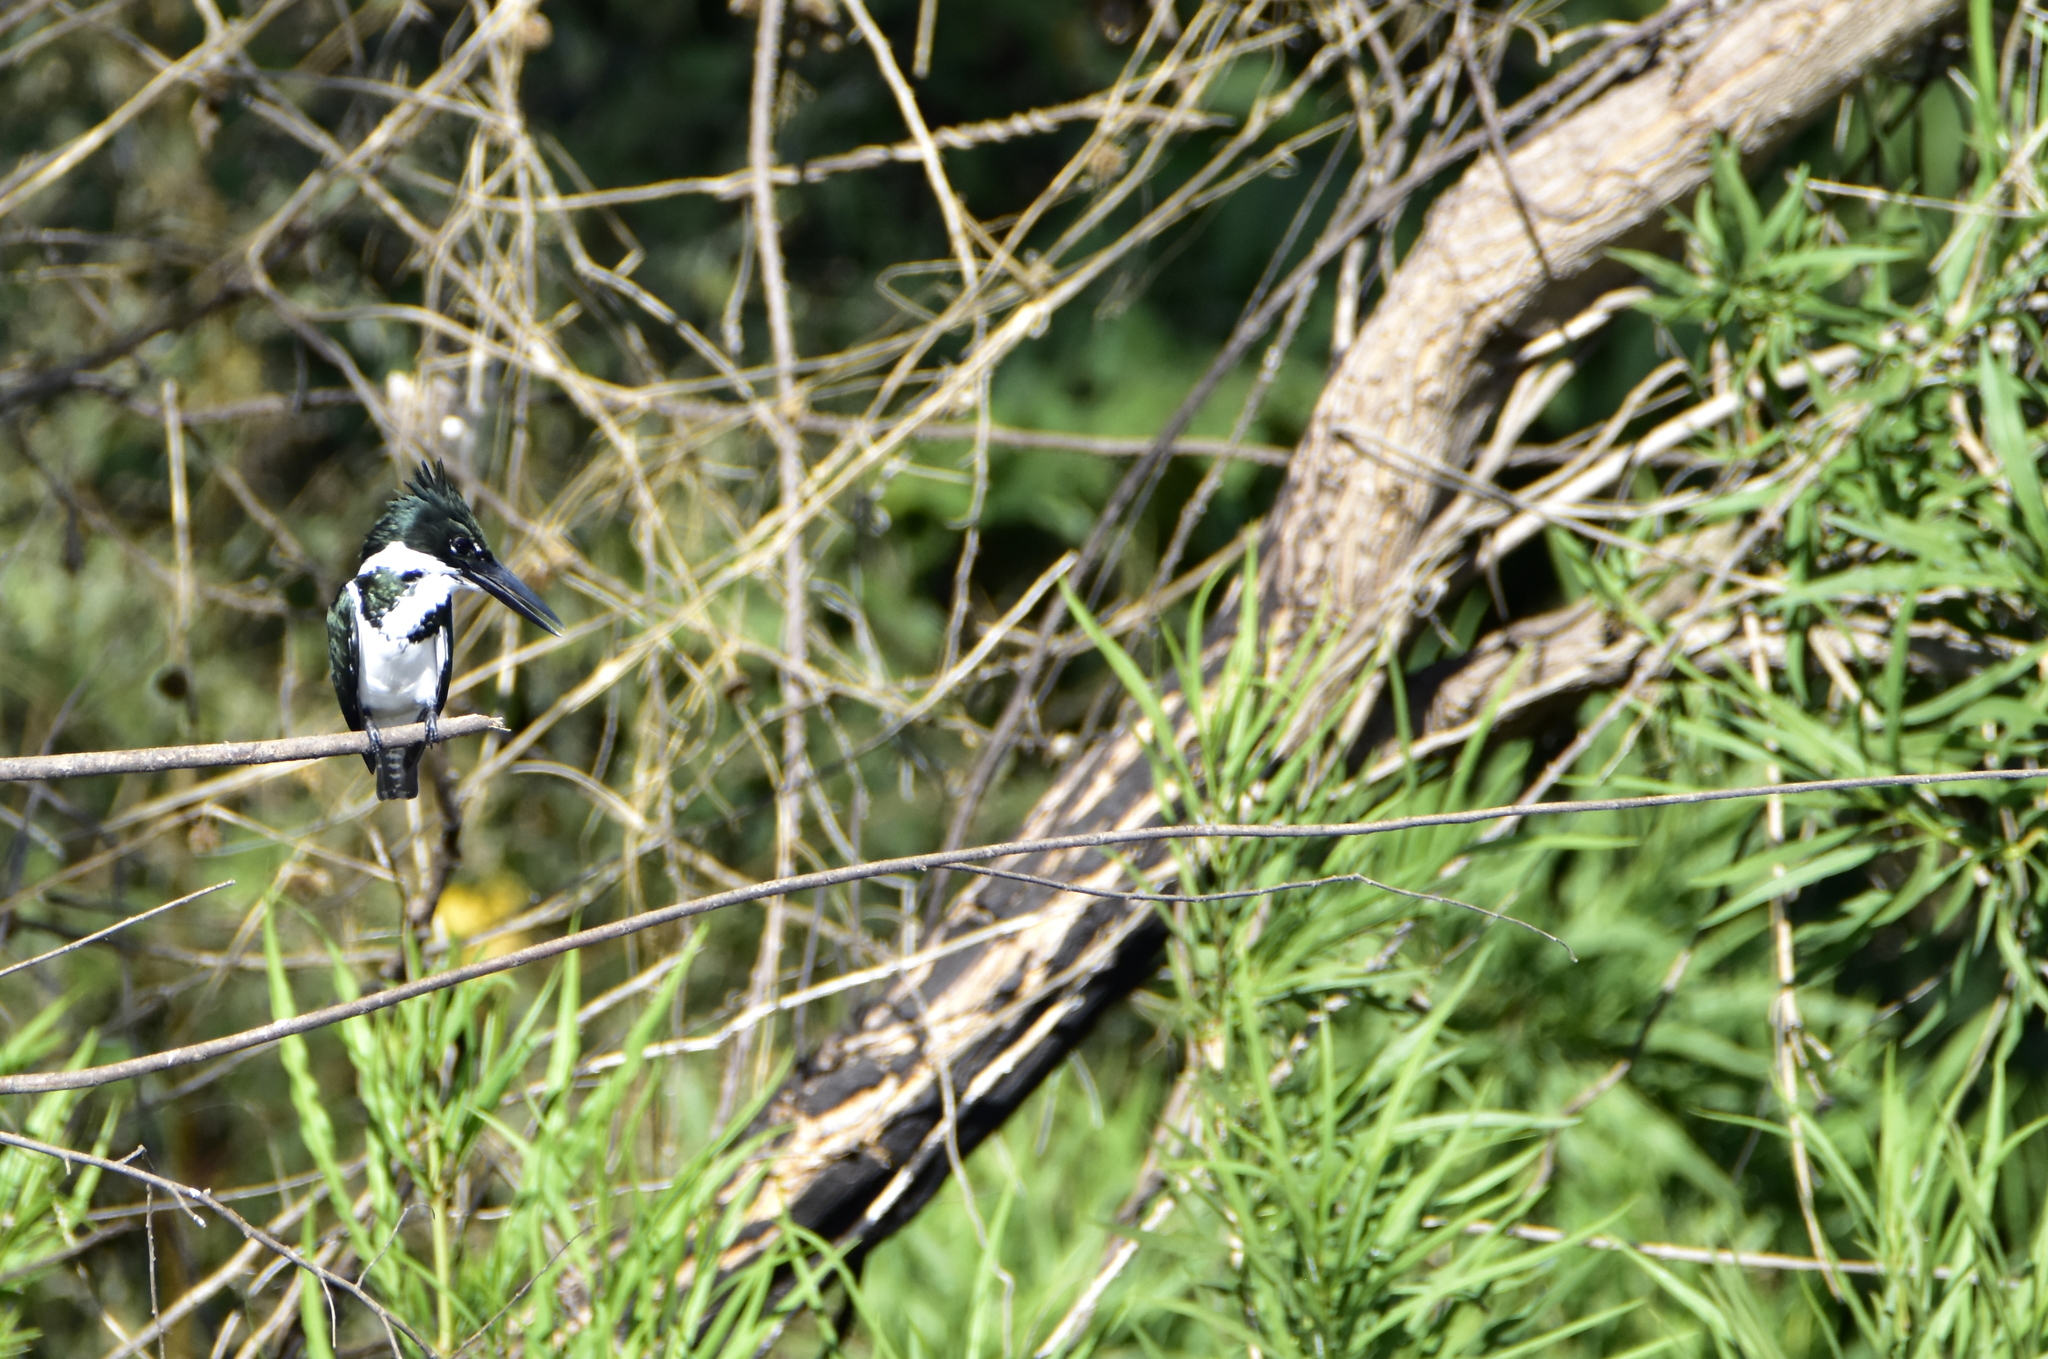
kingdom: Animalia
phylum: Chordata
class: Aves
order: Coraciiformes
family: Alcedinidae
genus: Chloroceryle
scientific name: Chloroceryle amazona
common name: Amazon kingfisher
